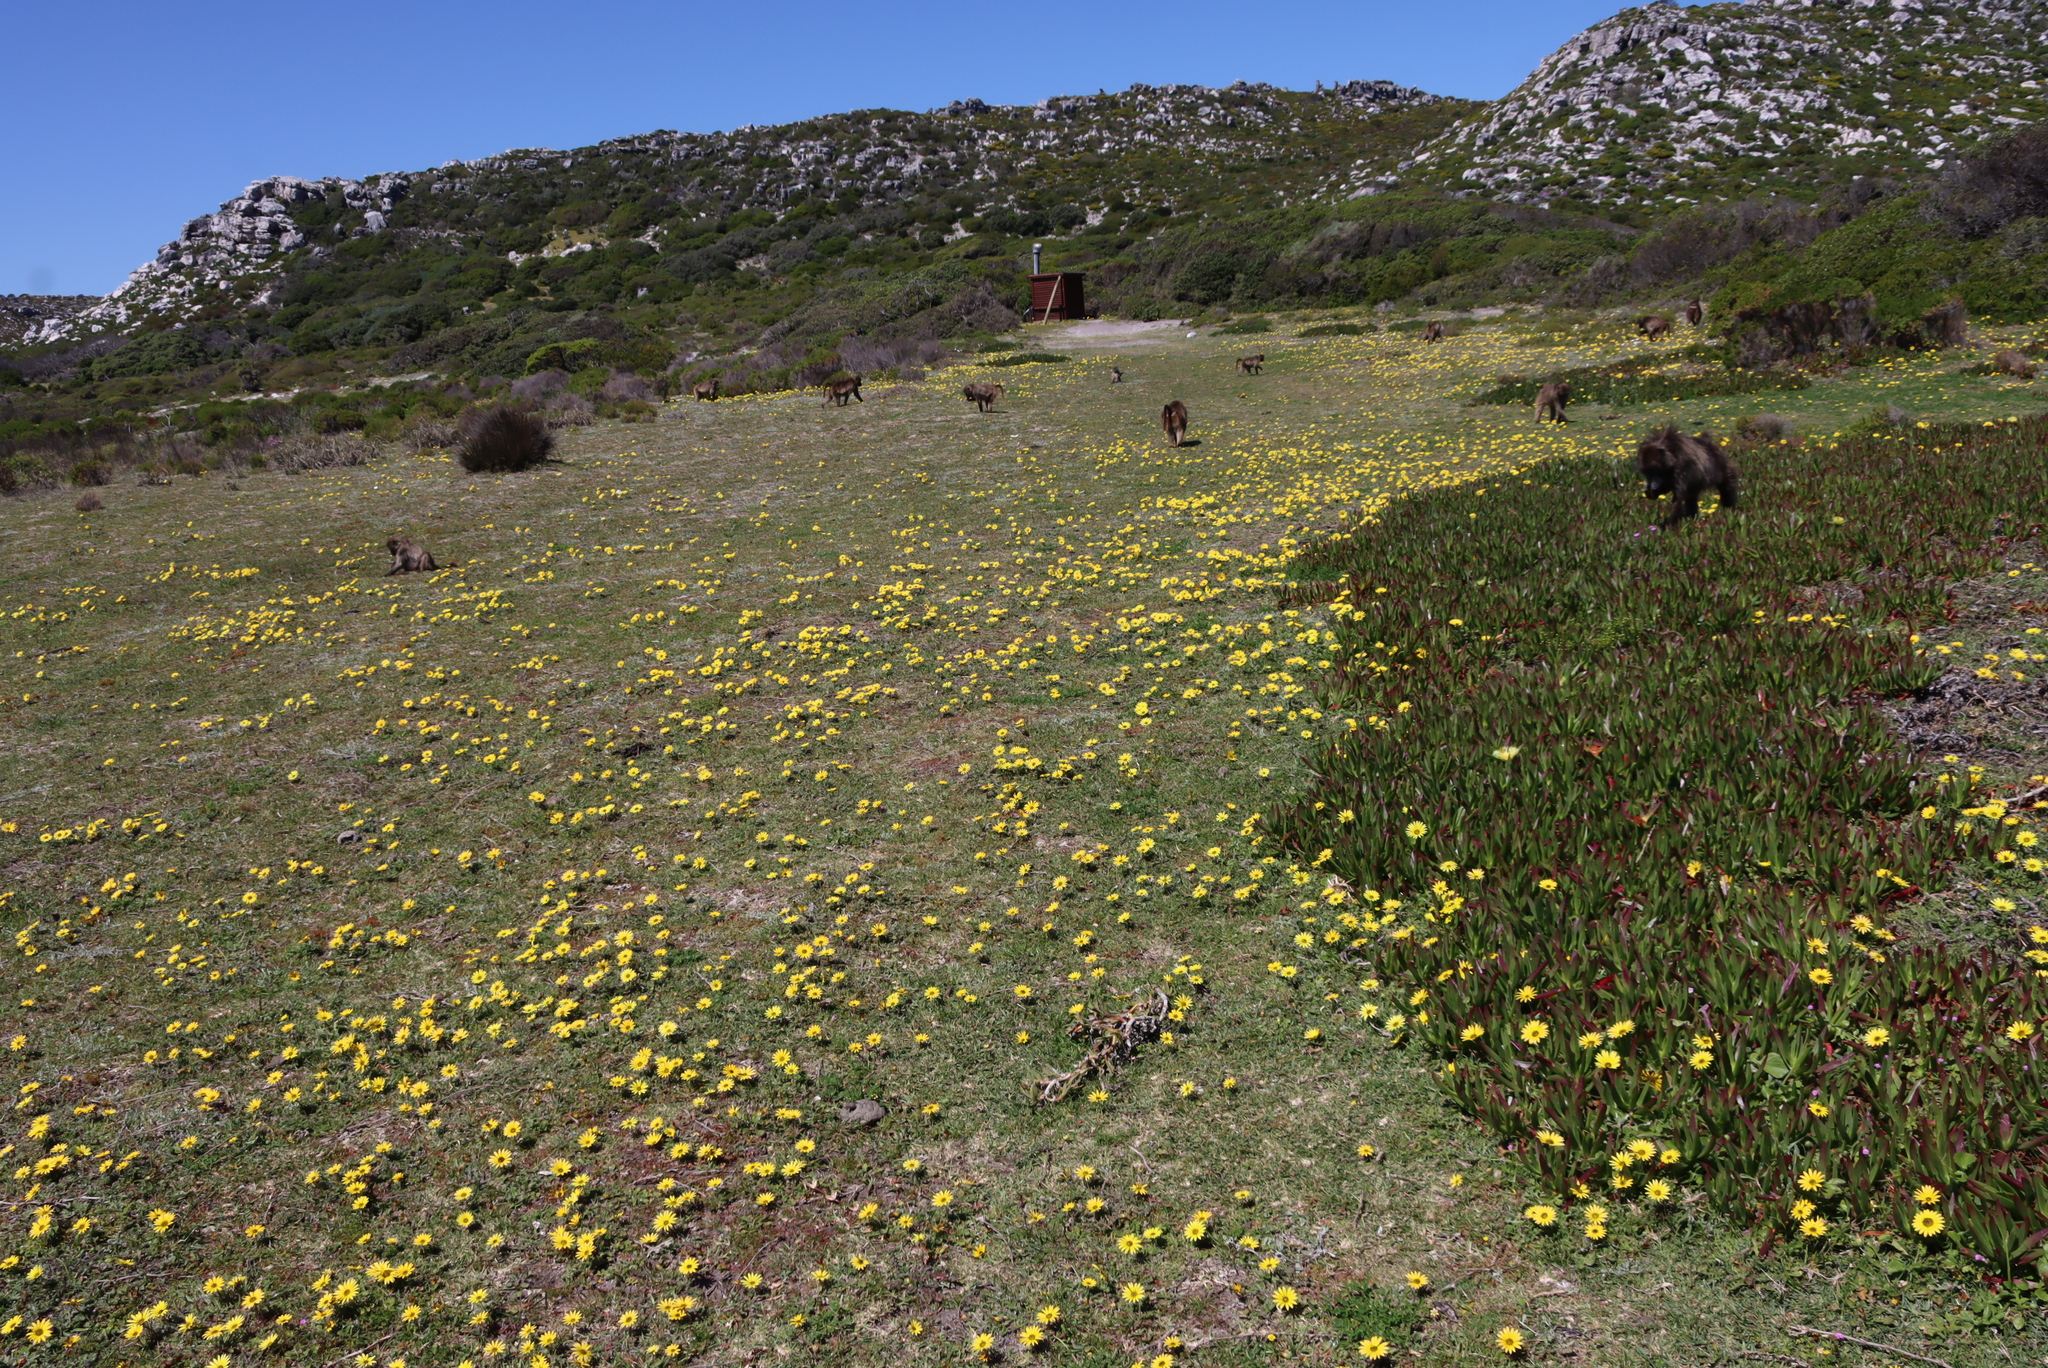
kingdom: Animalia
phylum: Chordata
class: Mammalia
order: Primates
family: Cercopithecidae
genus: Papio
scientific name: Papio ursinus
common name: Chacma baboon
